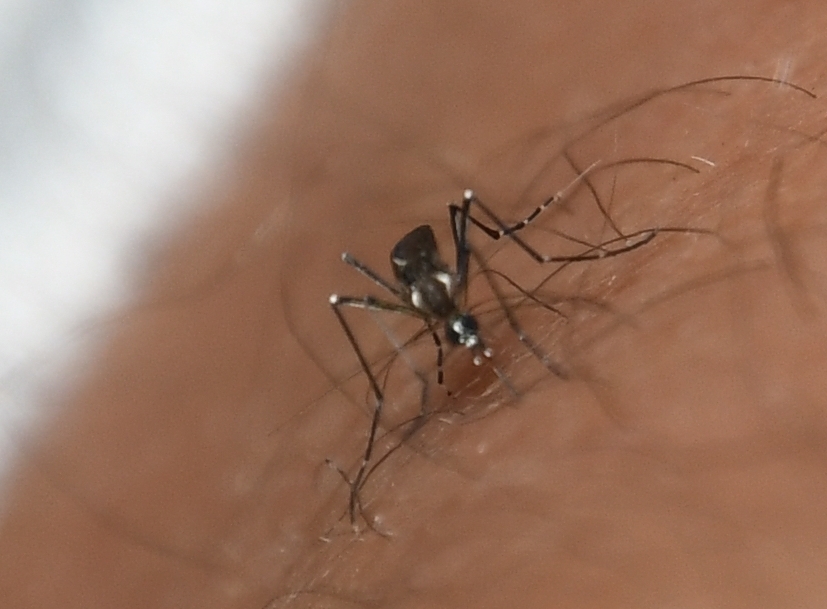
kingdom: Animalia
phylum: Arthropoda
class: Insecta
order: Diptera
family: Culicidae
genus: Aedes
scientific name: Aedes aegypti
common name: Yellow fever mosquito
